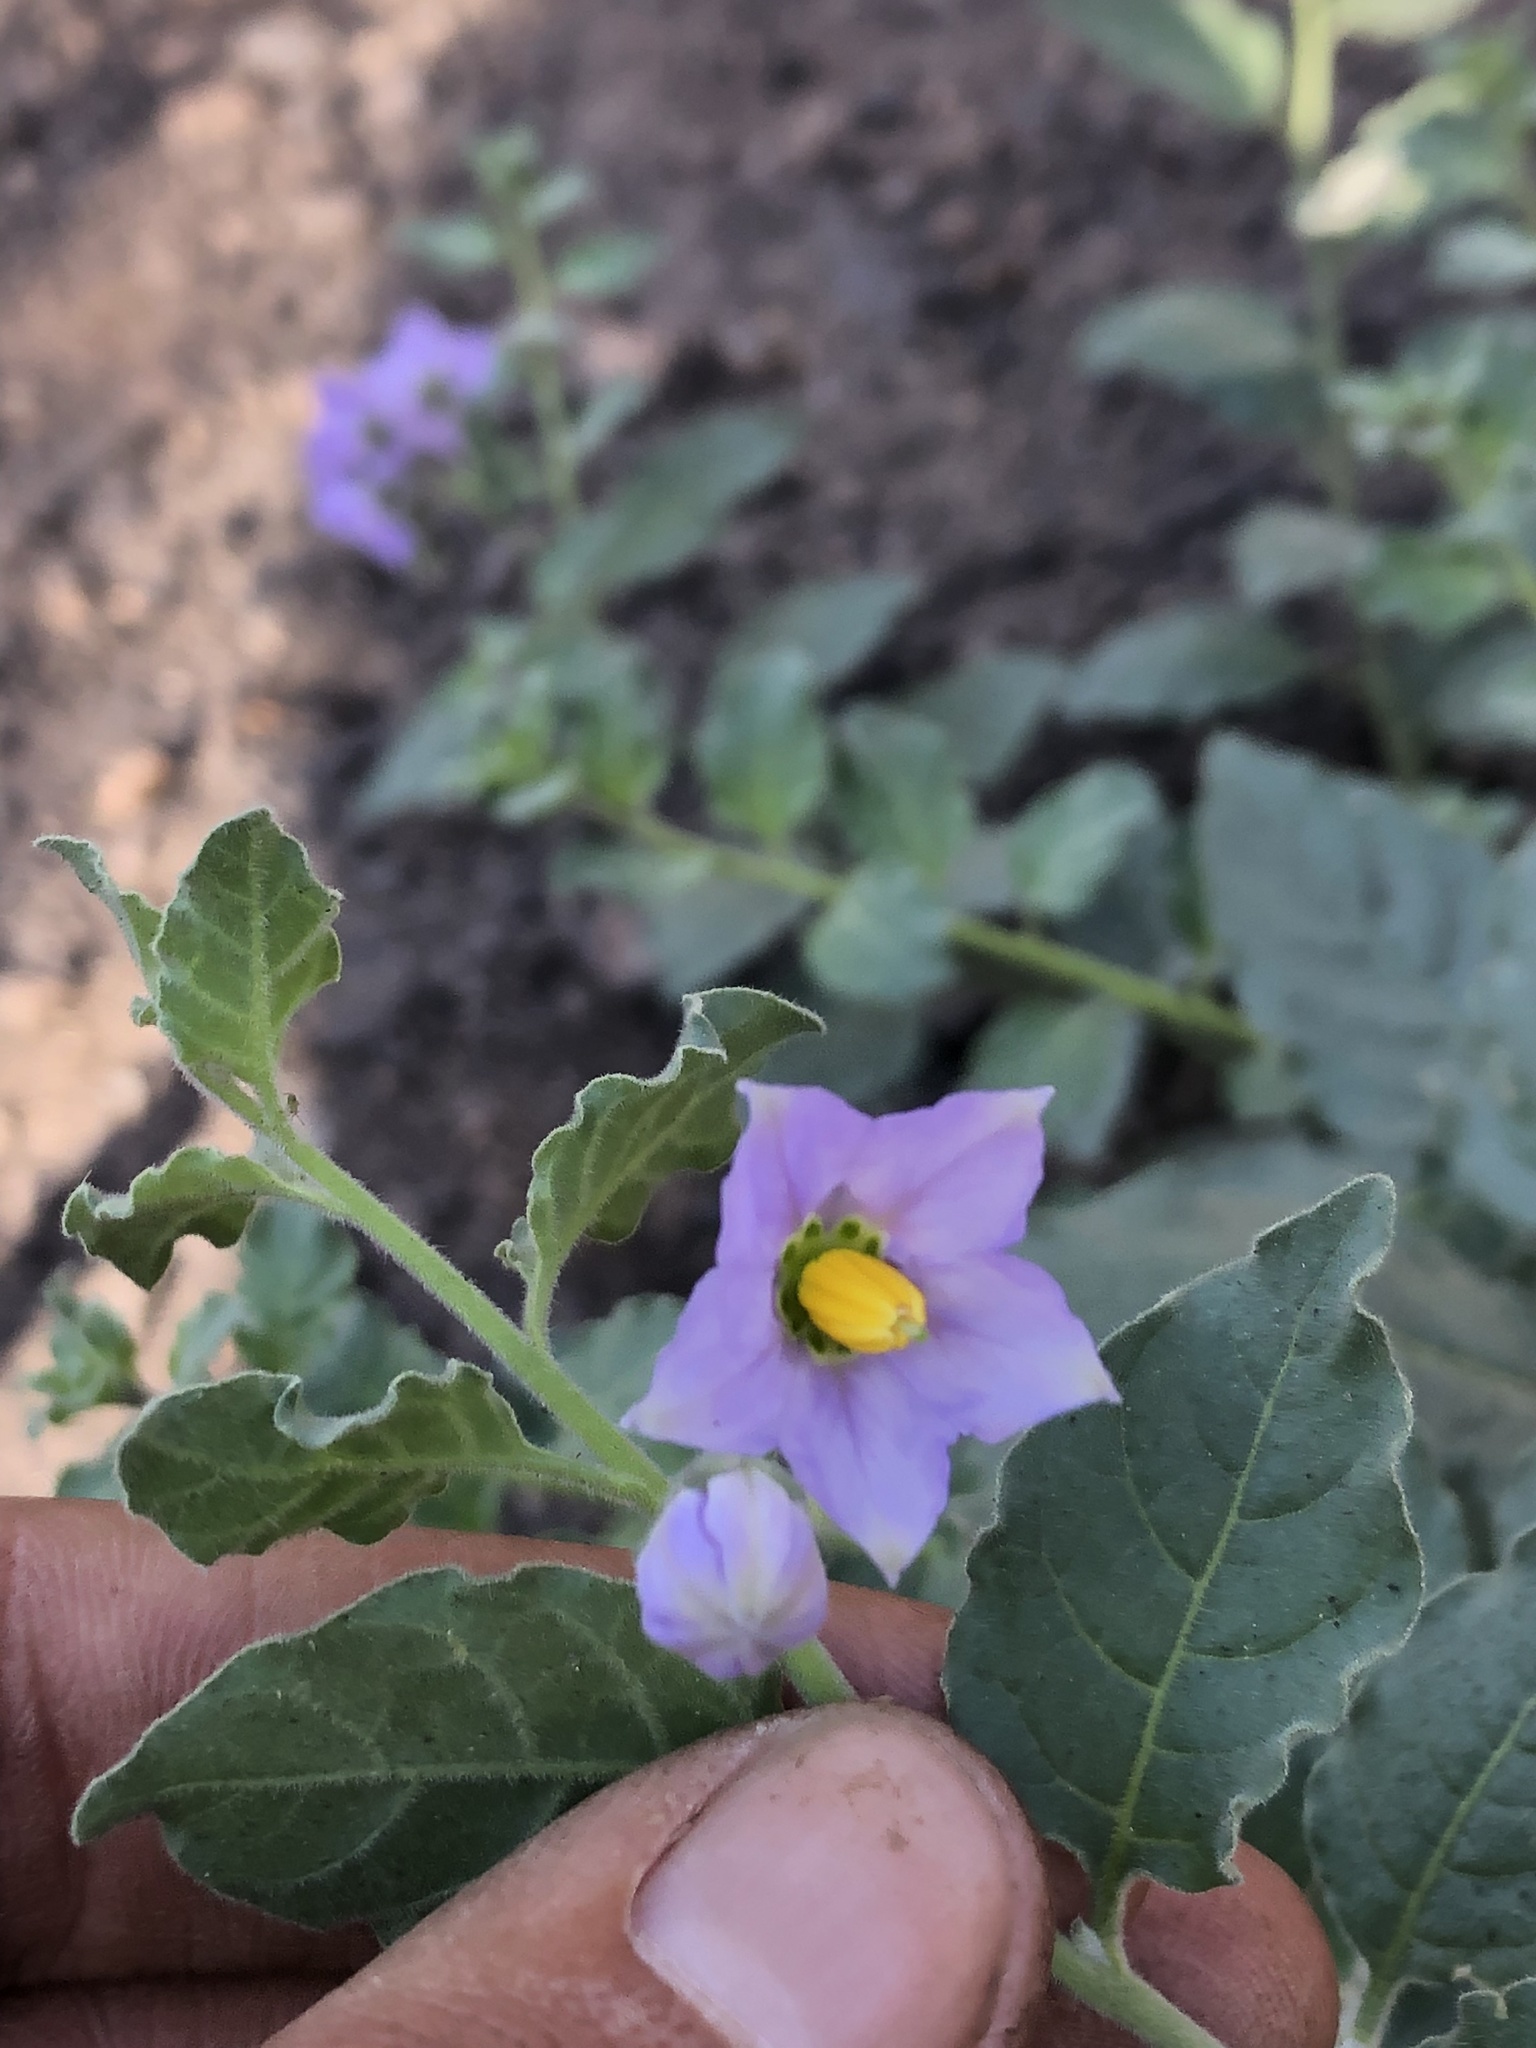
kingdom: Plantae
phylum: Tracheophyta
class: Magnoliopsida
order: Solanales
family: Solanaceae
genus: Solanum
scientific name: Solanum umbelliferum
